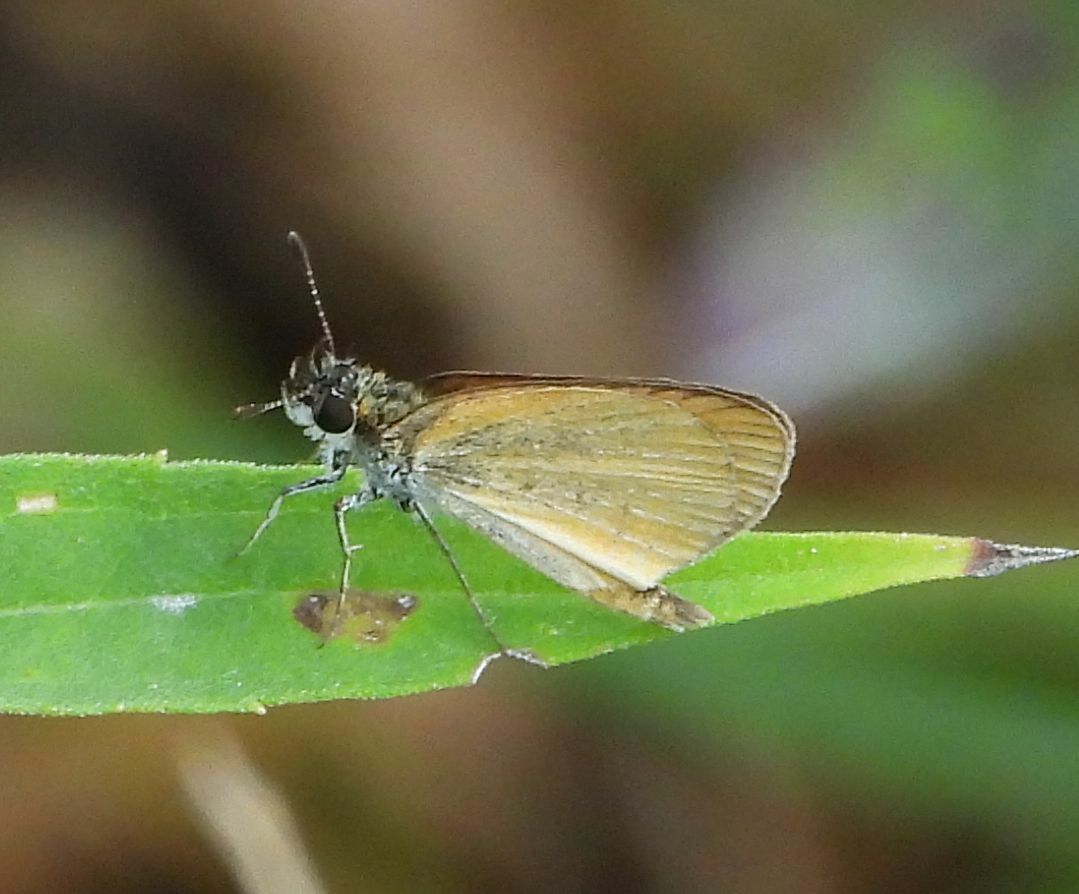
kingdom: Animalia
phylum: Arthropoda
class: Insecta
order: Lepidoptera
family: Hesperiidae
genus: Ancyloxypha
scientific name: Ancyloxypha numitor
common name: Least skipper
